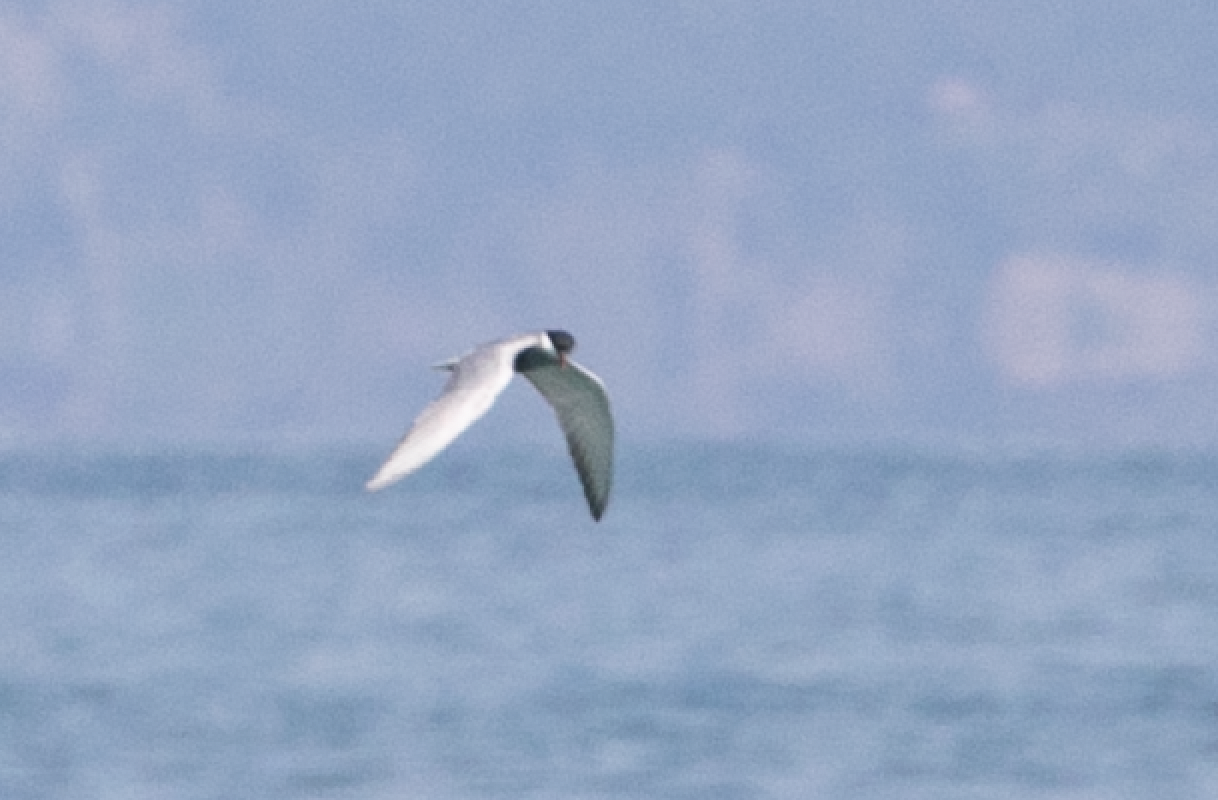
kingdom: Animalia
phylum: Chordata
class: Aves
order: Charadriiformes
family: Laridae
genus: Chlidonias
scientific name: Chlidonias hybrida
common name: Whiskered tern
